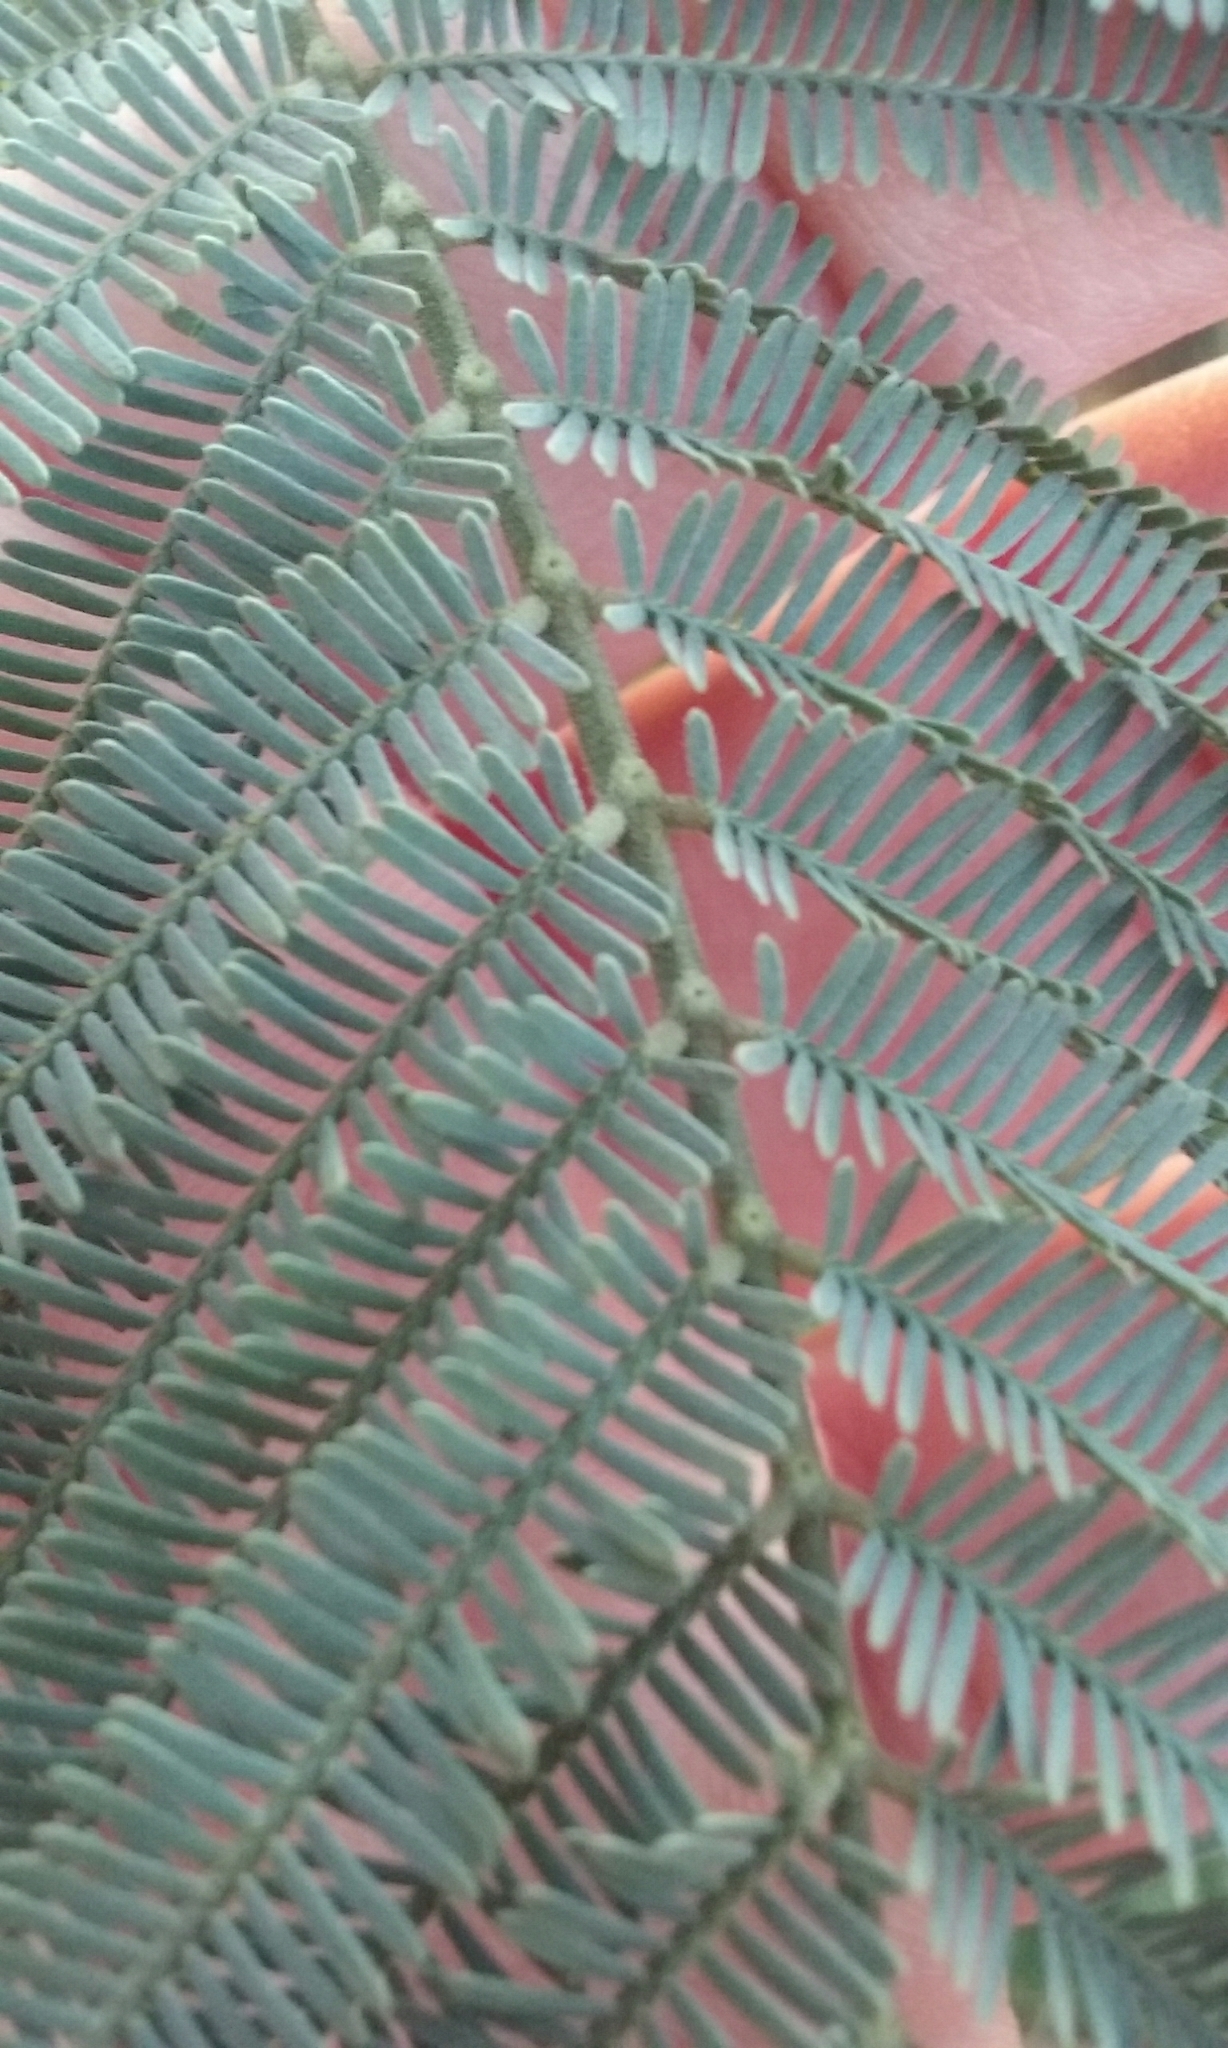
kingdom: Plantae
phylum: Tracheophyta
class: Magnoliopsida
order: Fabales
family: Fabaceae
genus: Acacia
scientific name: Acacia dealbata
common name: Silver wattle
